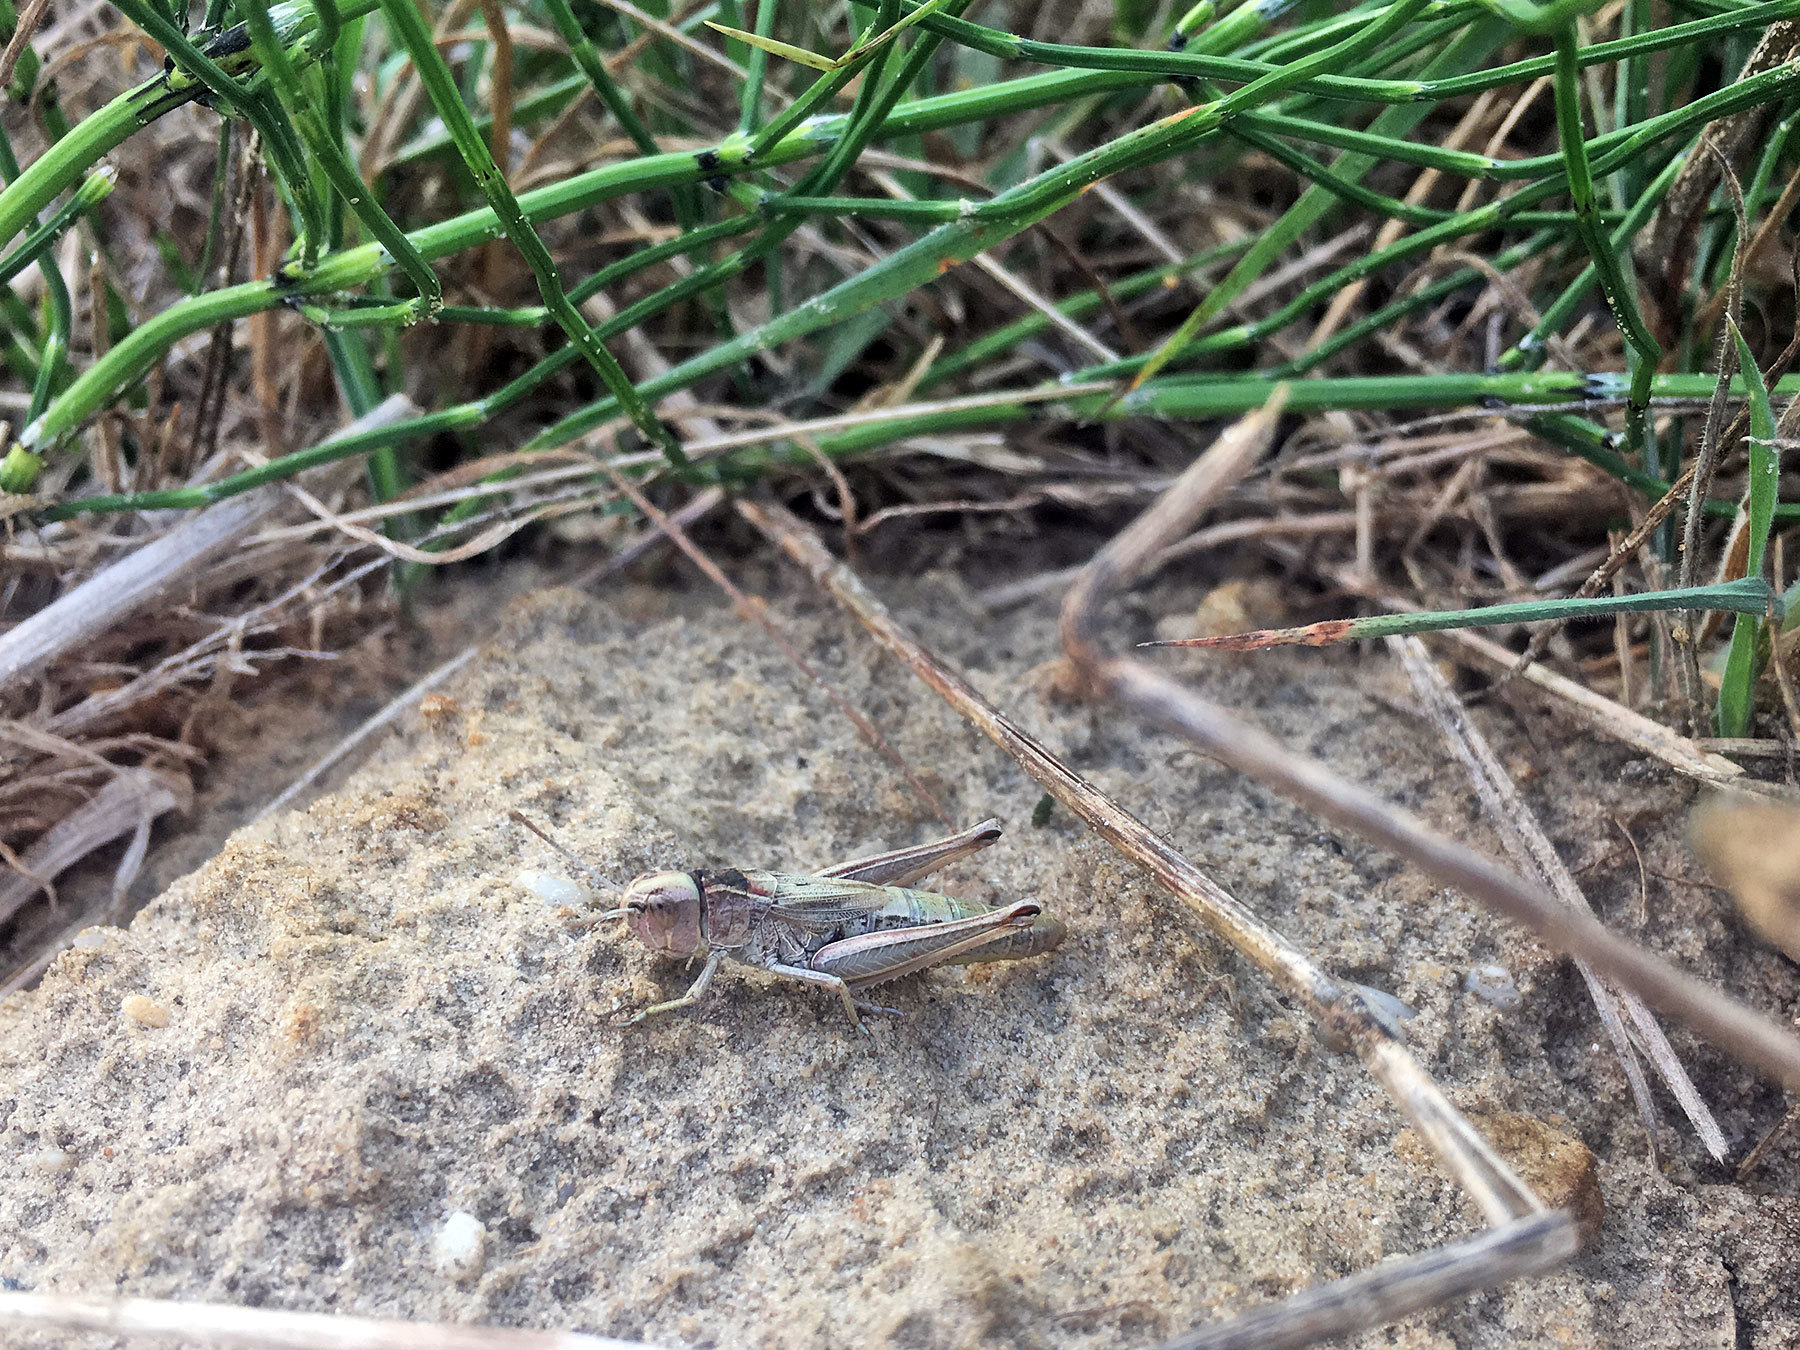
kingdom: Animalia
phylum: Arthropoda
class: Insecta
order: Orthoptera
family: Acrididae
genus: Pseudochorthippus
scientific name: Pseudochorthippus parallelus
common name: Meadow grasshopper
